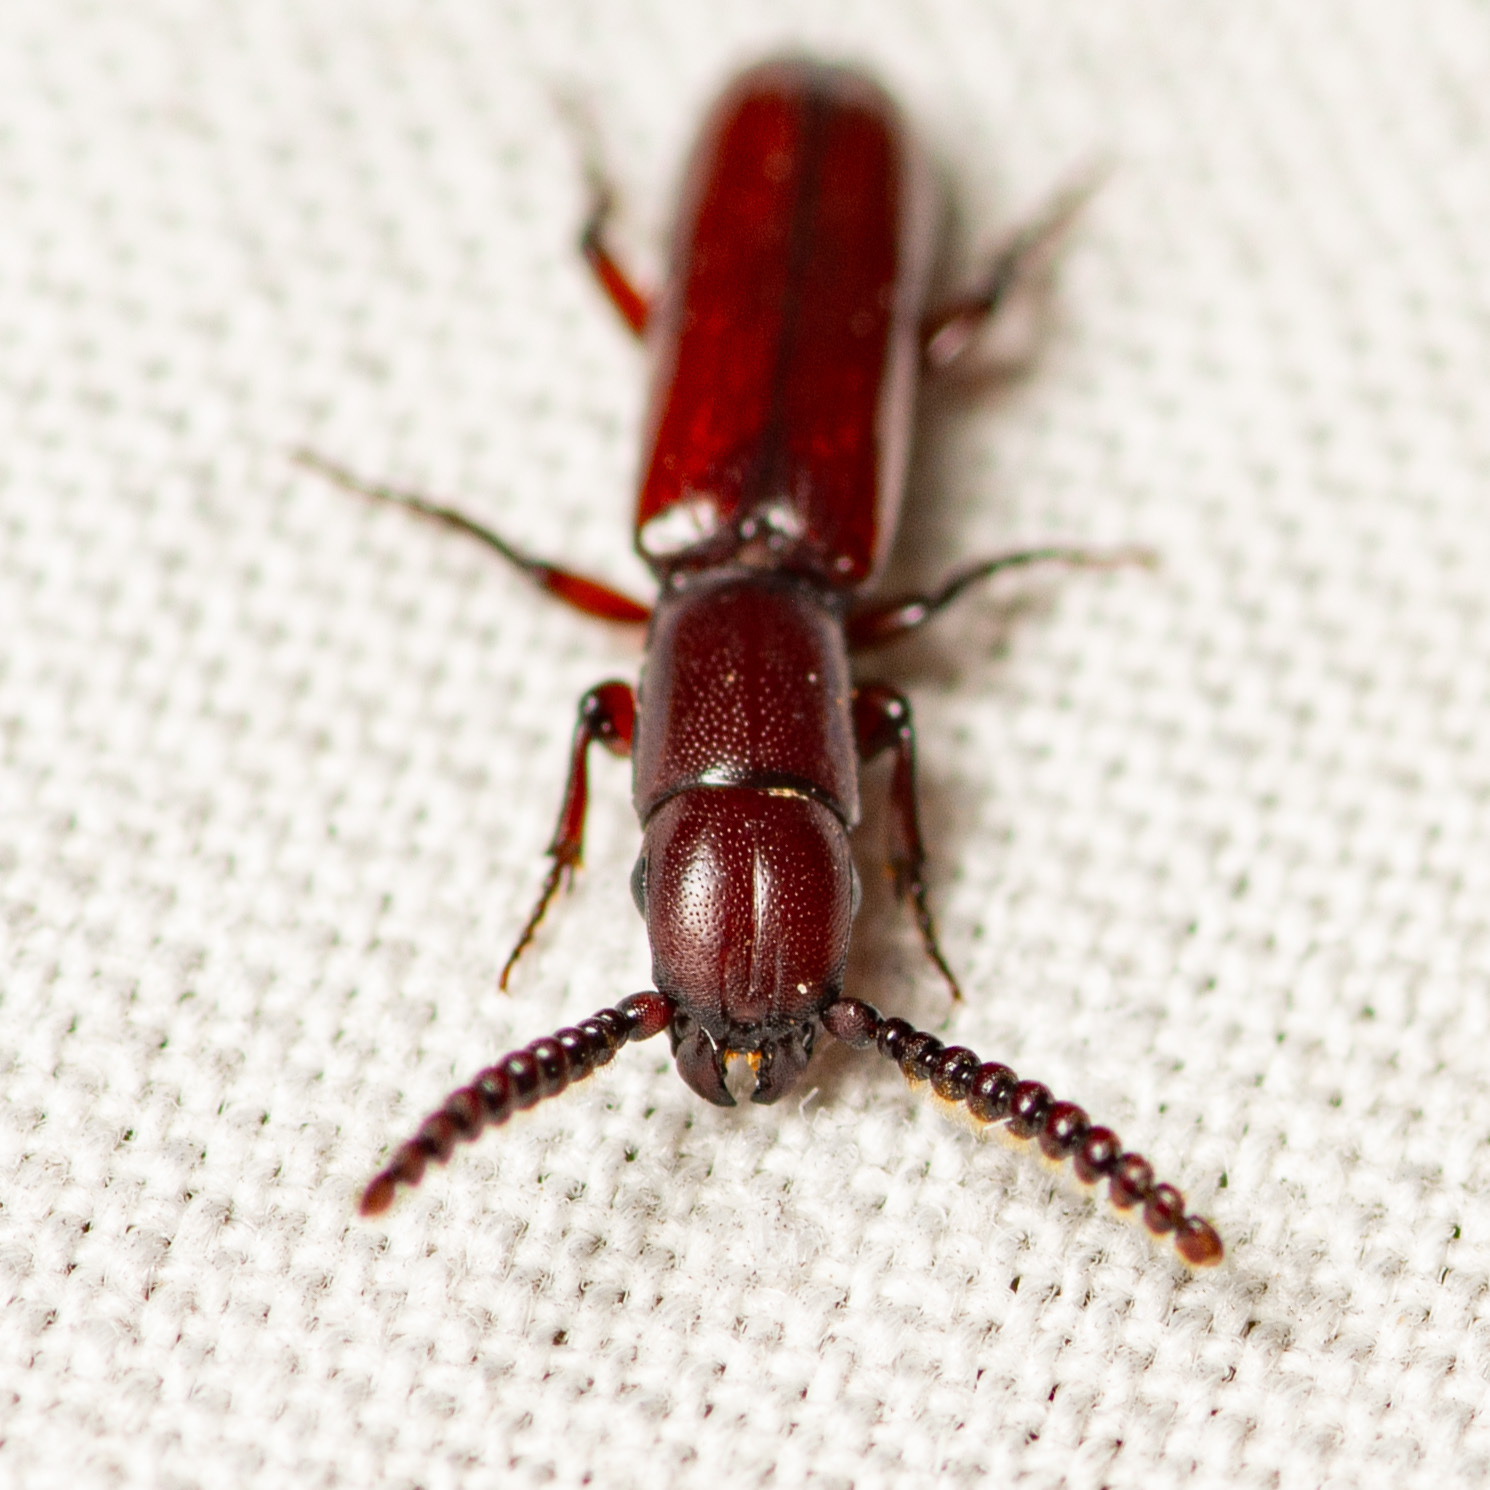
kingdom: Animalia
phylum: Arthropoda
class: Insecta
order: Coleoptera
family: Passandridae
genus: Taphroscelidia
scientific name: Taphroscelidia linearis
